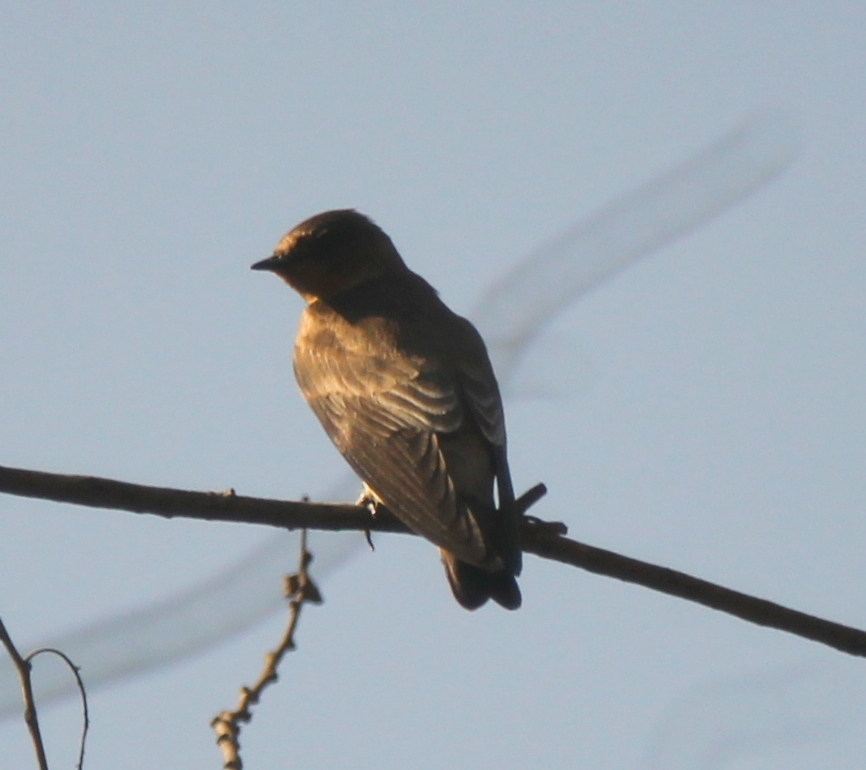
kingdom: Animalia
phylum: Chordata
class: Aves
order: Passeriformes
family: Hirundinidae
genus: Stelgidopteryx
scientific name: Stelgidopteryx ruficollis
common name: Southern rough-winged swallow
